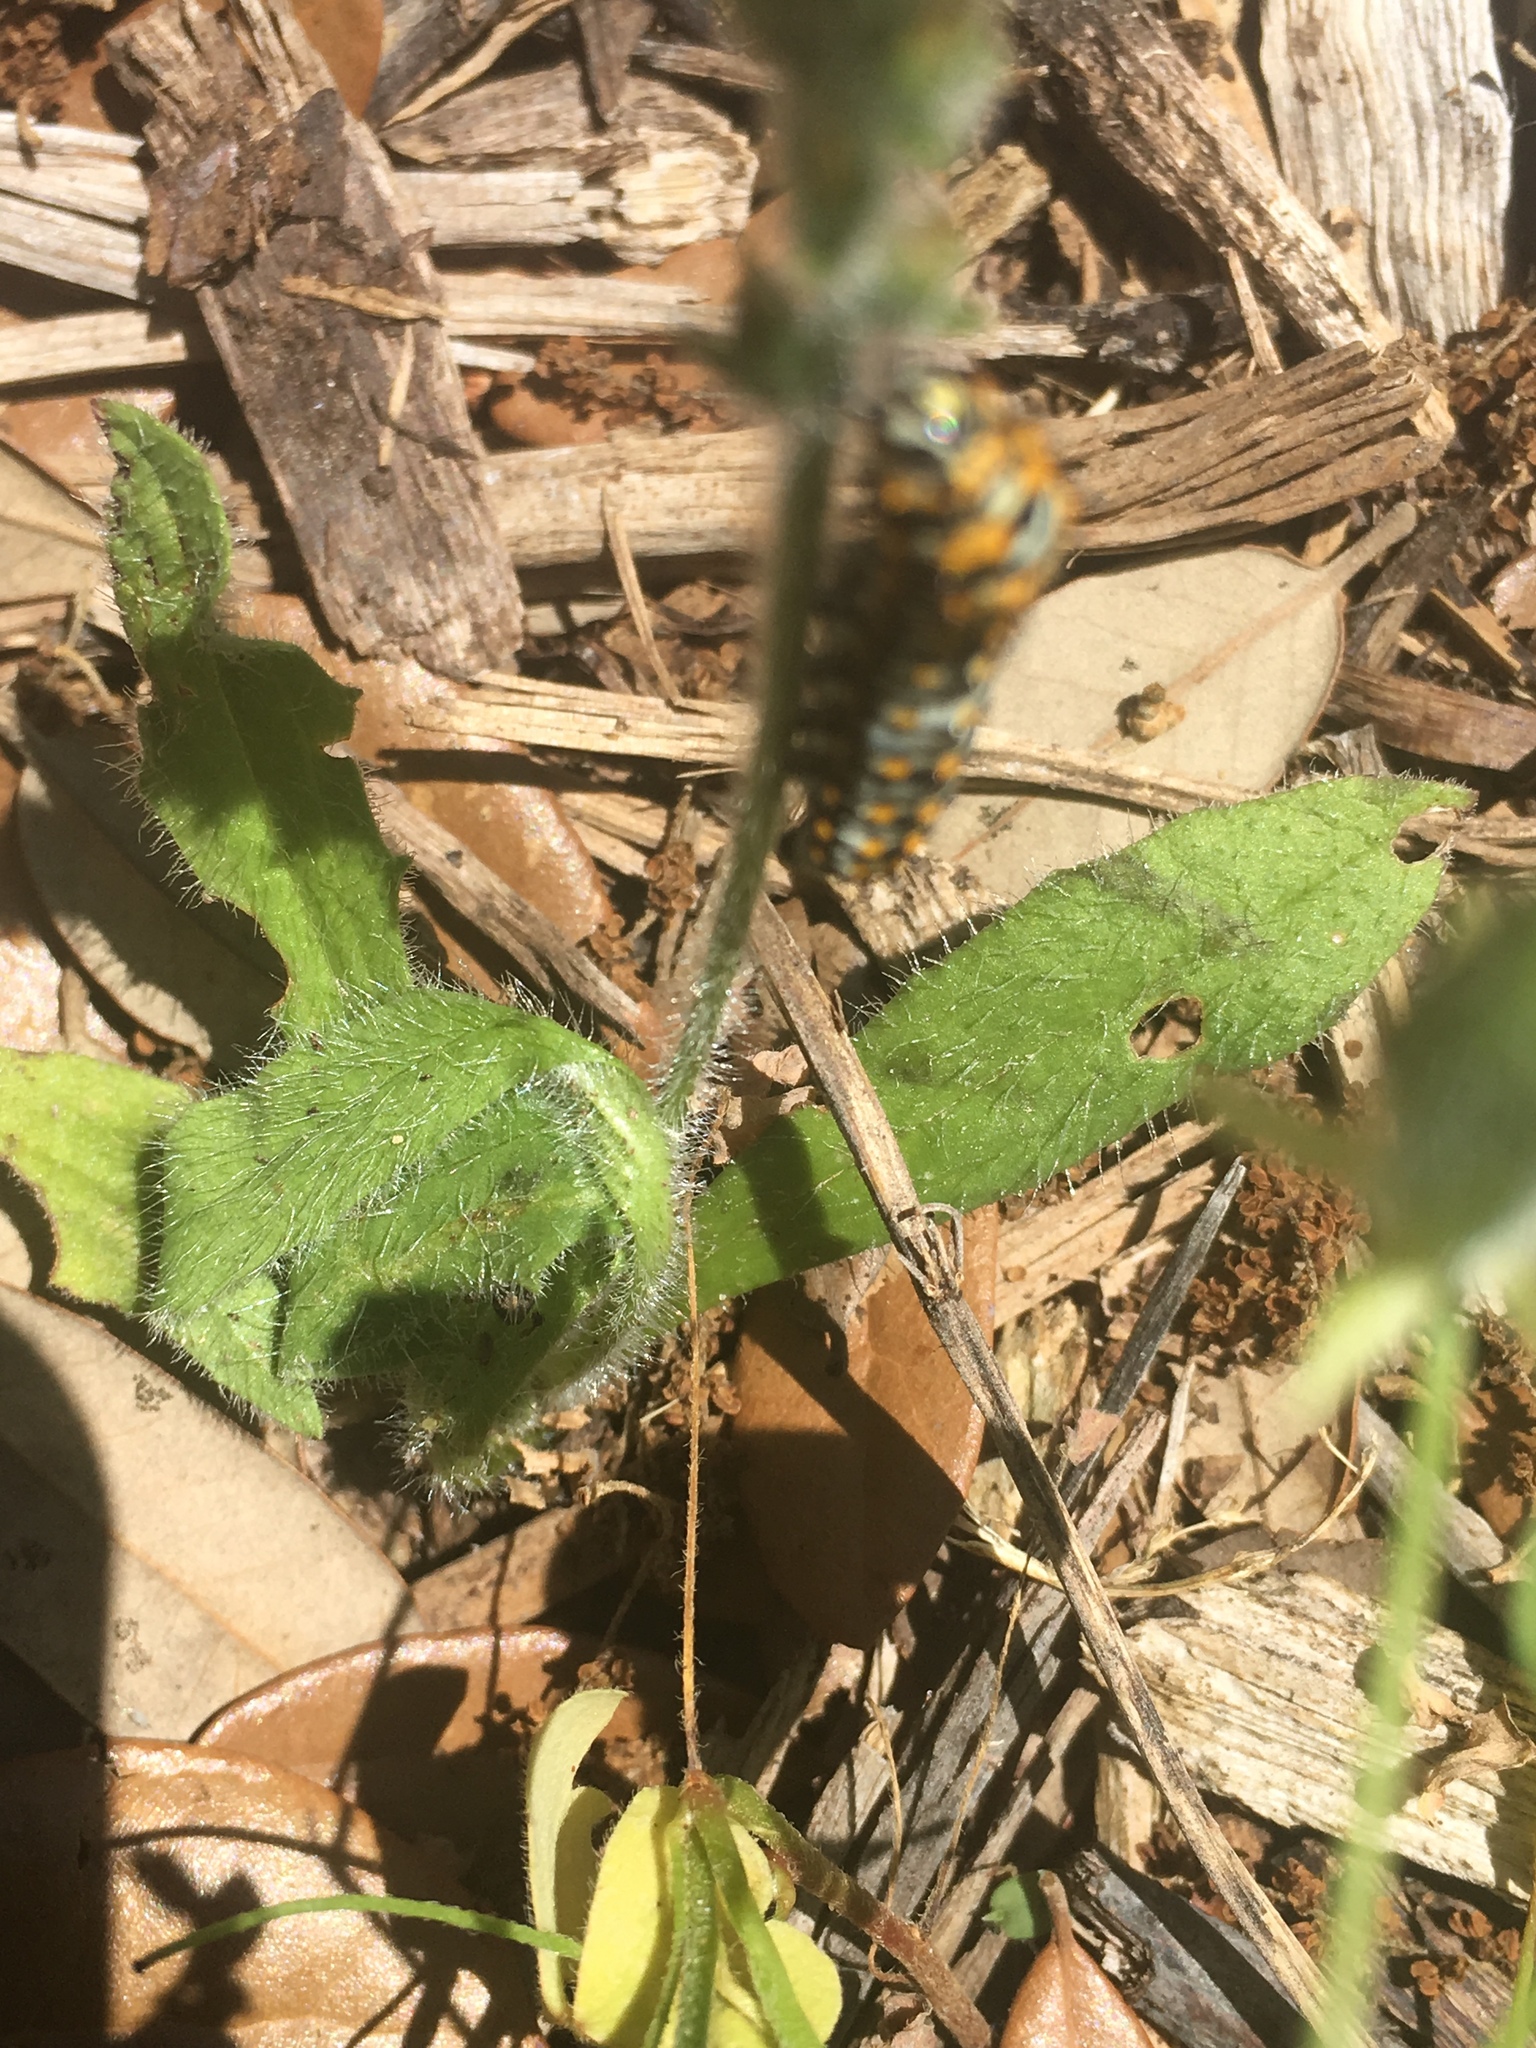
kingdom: Animalia
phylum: Arthropoda
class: Insecta
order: Lepidoptera
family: Papilionidae
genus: Papilio
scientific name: Papilio polyxenes
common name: Black swallowtail
